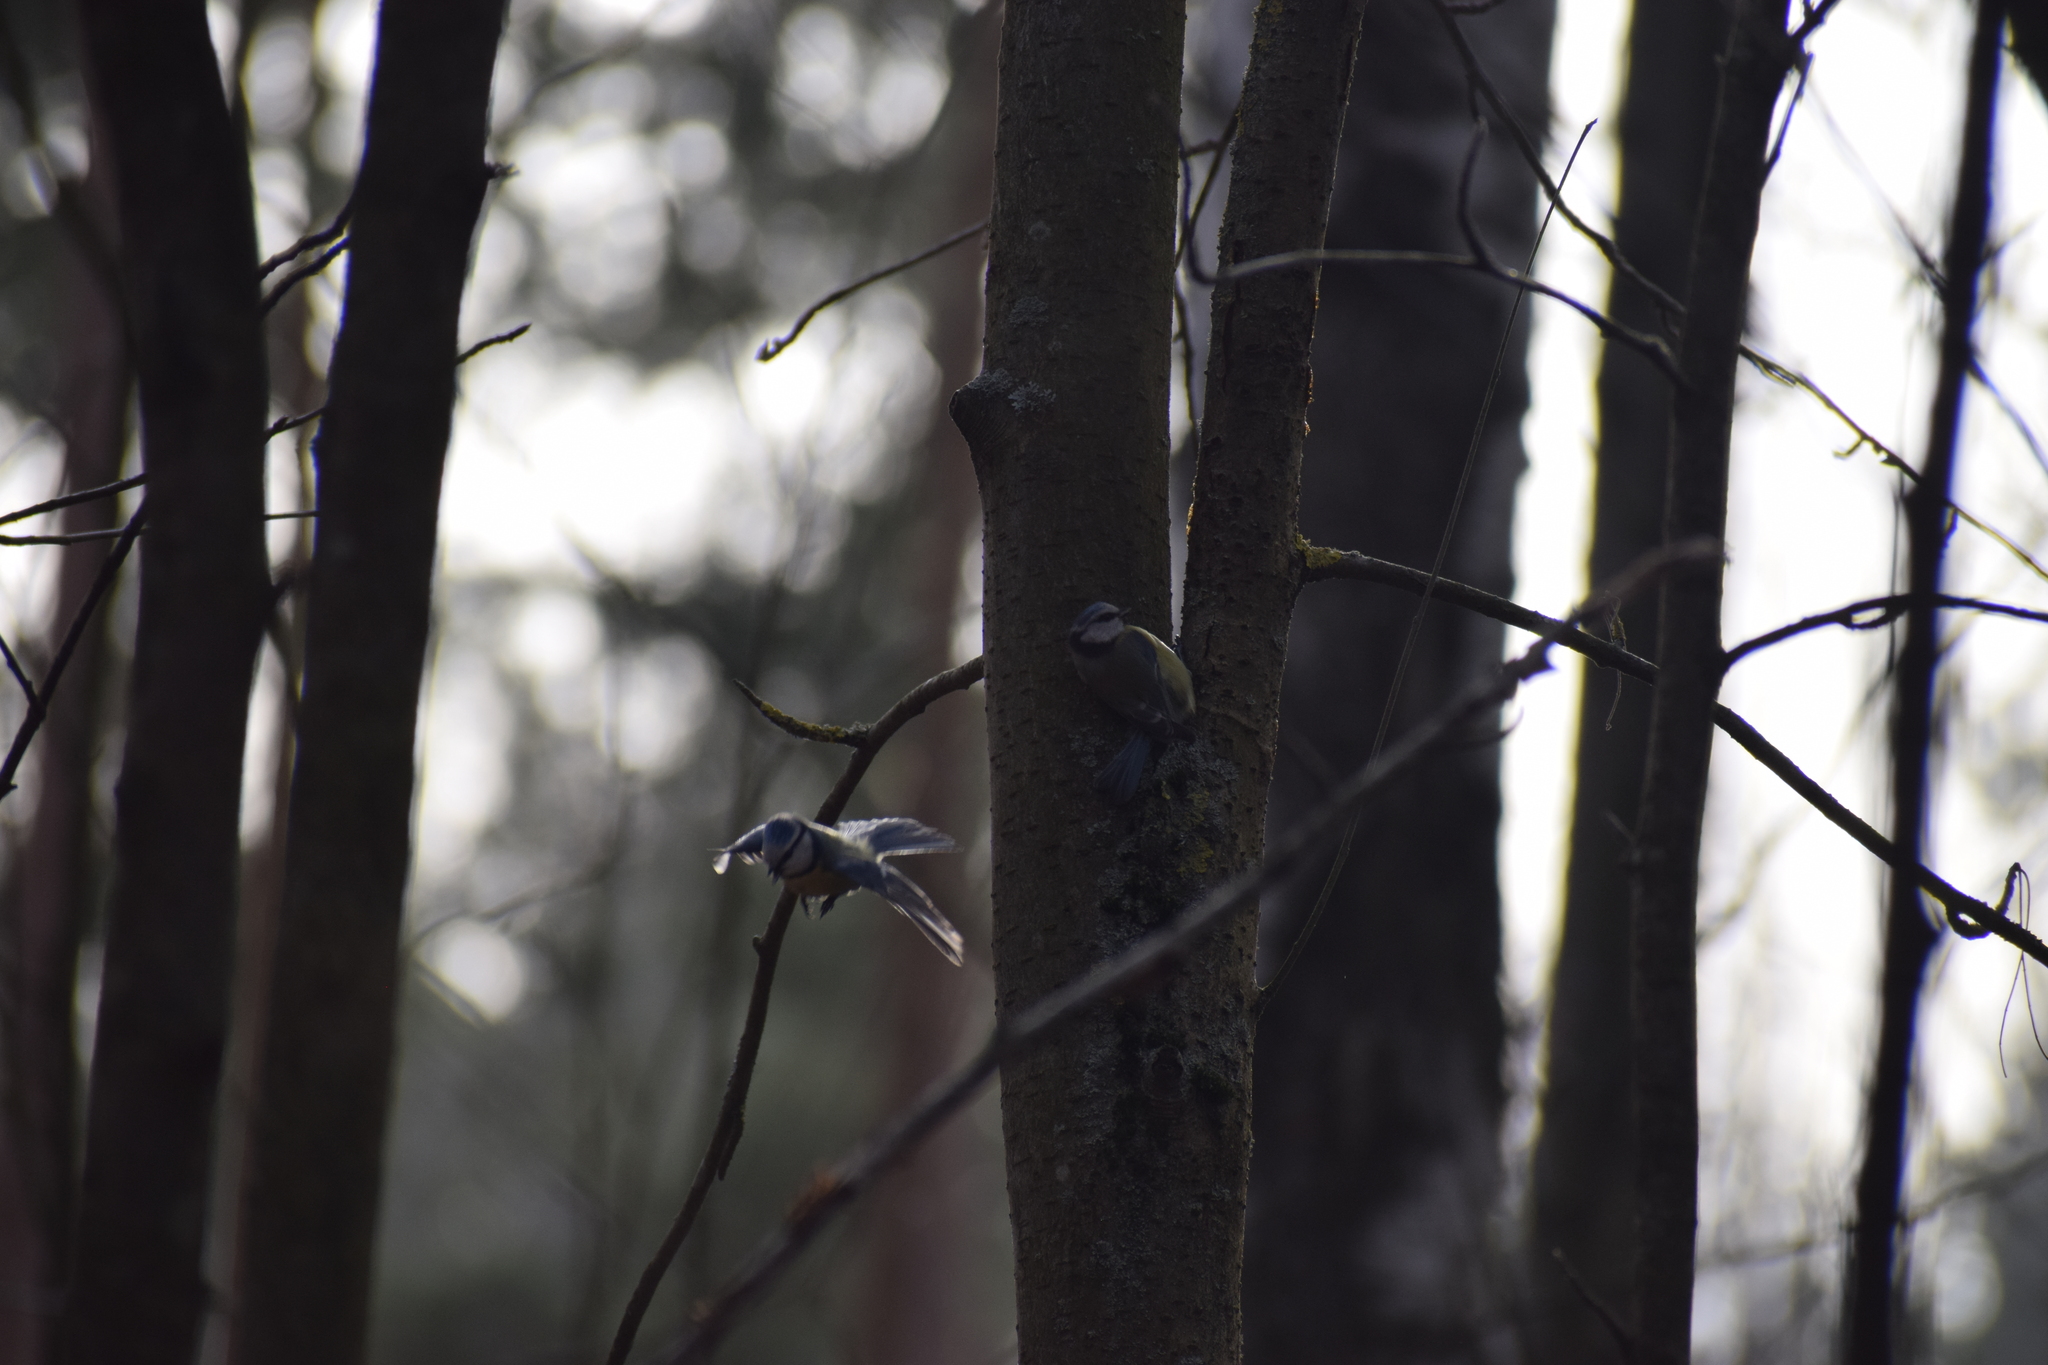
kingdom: Animalia
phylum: Chordata
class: Aves
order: Passeriformes
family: Paridae
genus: Cyanistes
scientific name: Cyanistes caeruleus
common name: Eurasian blue tit
